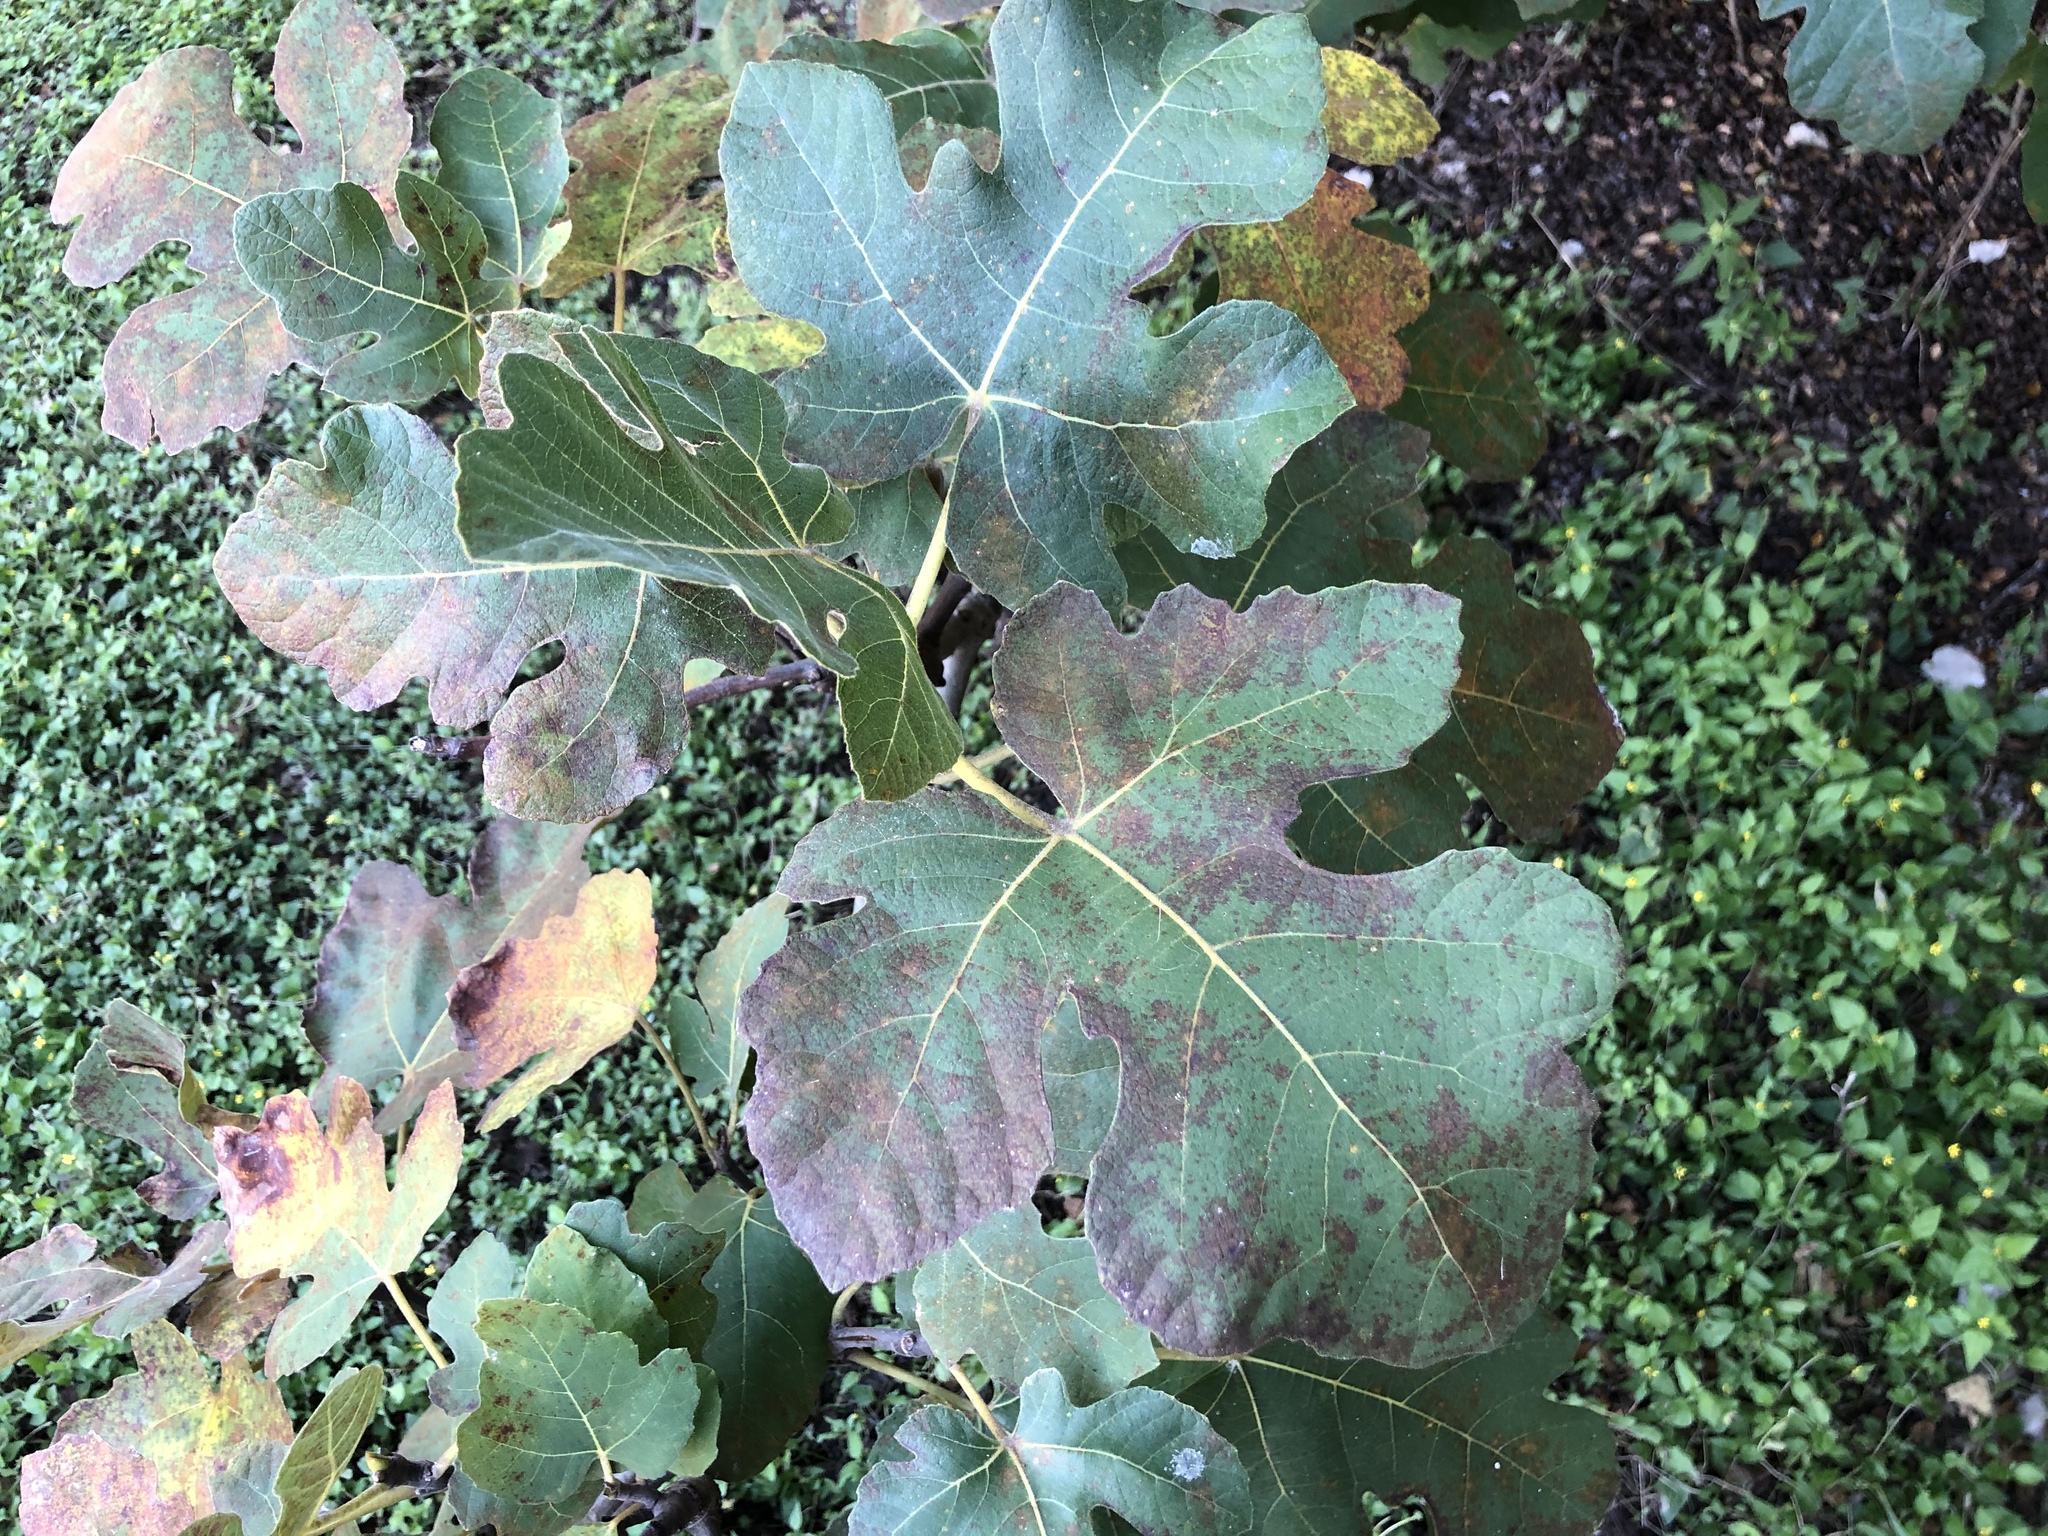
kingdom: Plantae
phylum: Tracheophyta
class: Magnoliopsida
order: Rosales
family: Moraceae
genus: Ficus
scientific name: Ficus carica
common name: Fig
